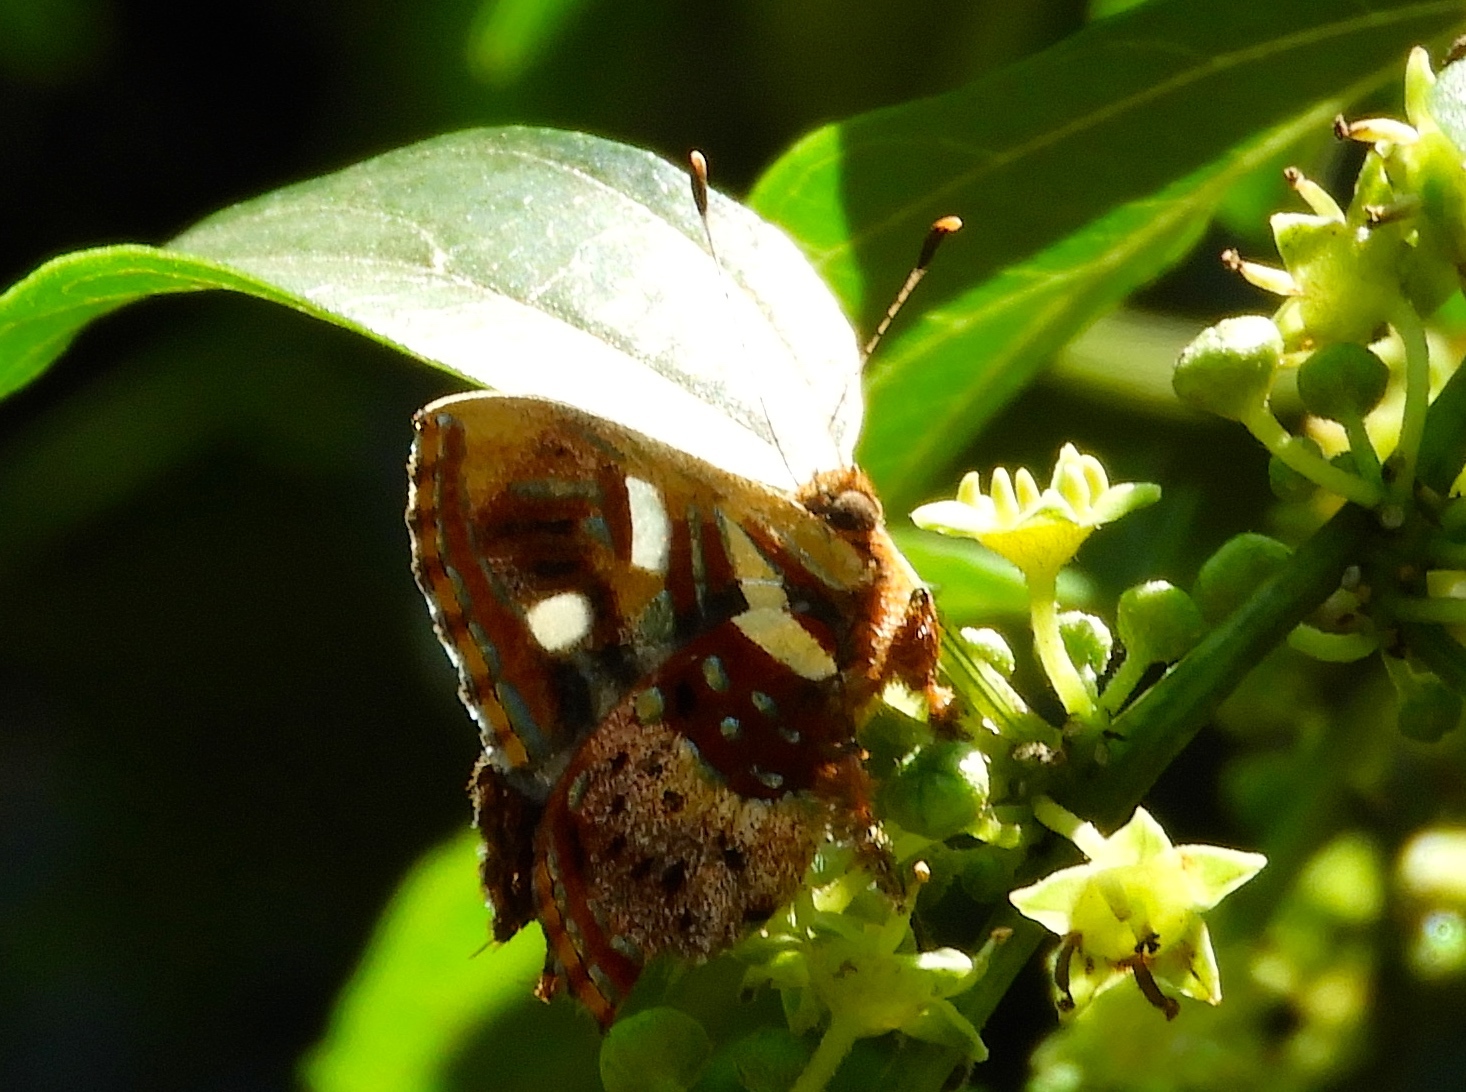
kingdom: Animalia
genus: Anteros
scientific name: Anteros carausius
